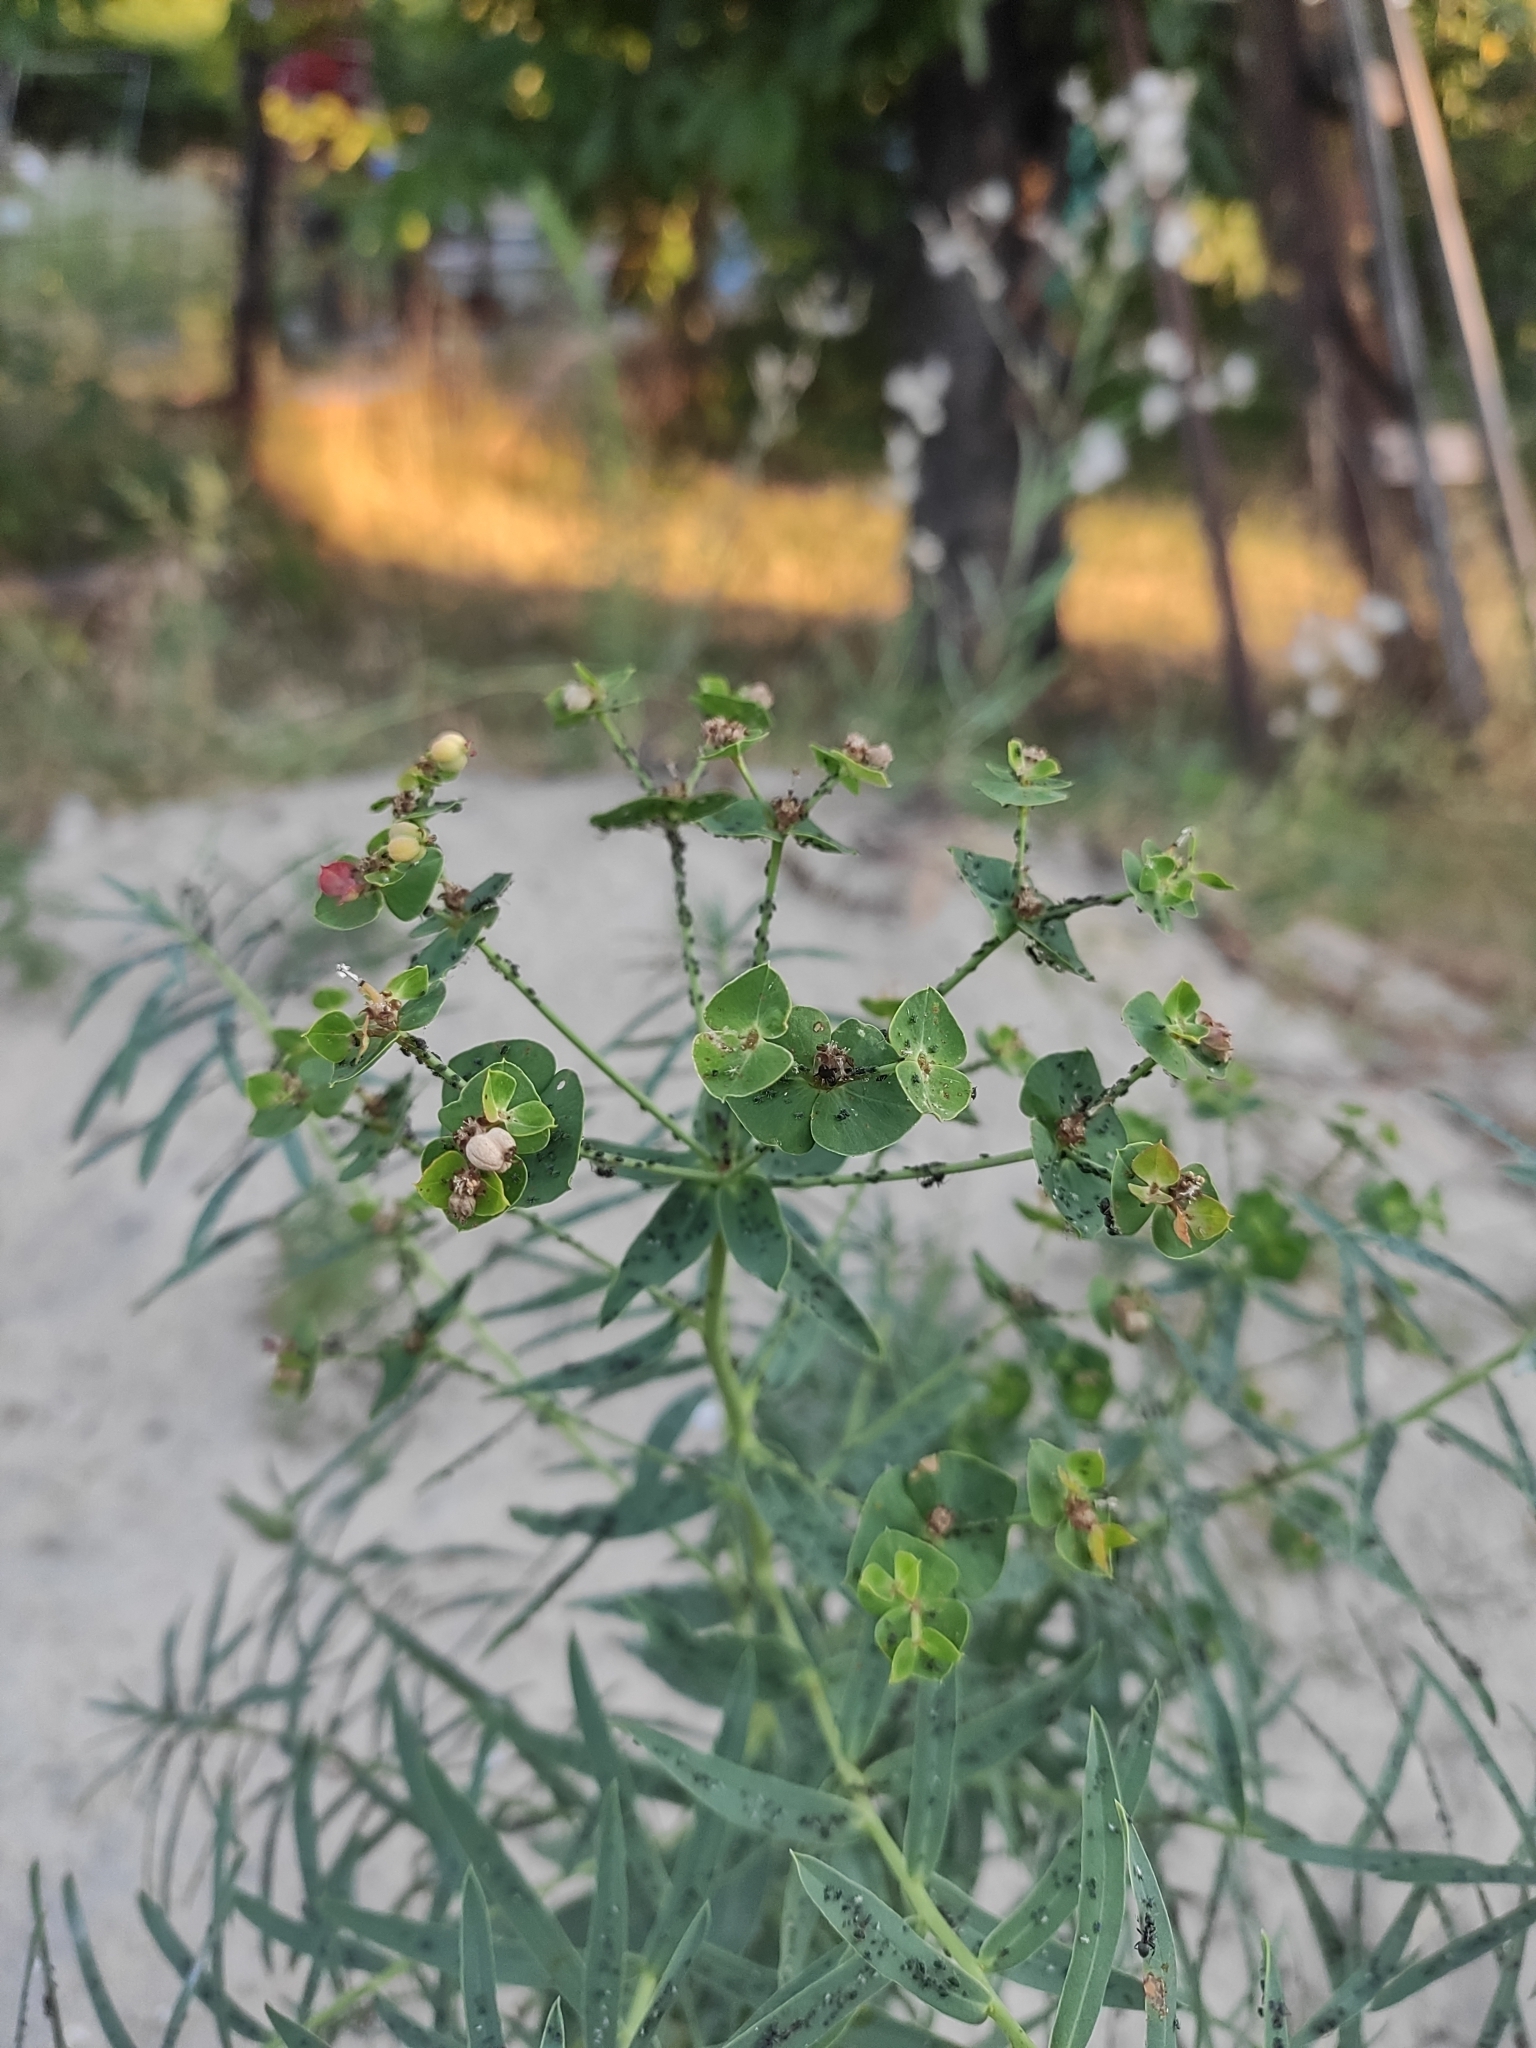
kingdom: Plantae
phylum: Tracheophyta
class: Magnoliopsida
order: Malpighiales
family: Euphorbiaceae
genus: Euphorbia
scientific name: Euphorbia virgata
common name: Leafy spurge
